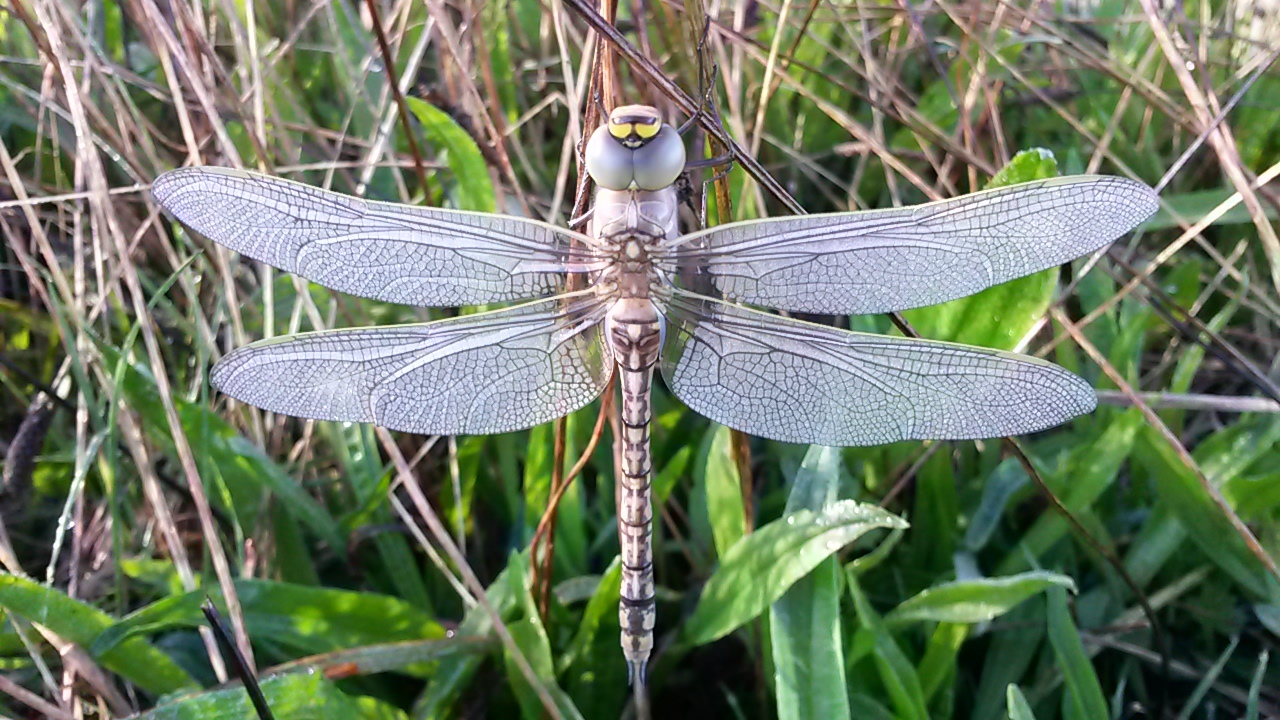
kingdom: Animalia
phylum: Arthropoda
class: Insecta
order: Odonata
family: Aeshnidae
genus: Anax
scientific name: Anax papuensis
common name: Australian emperor
